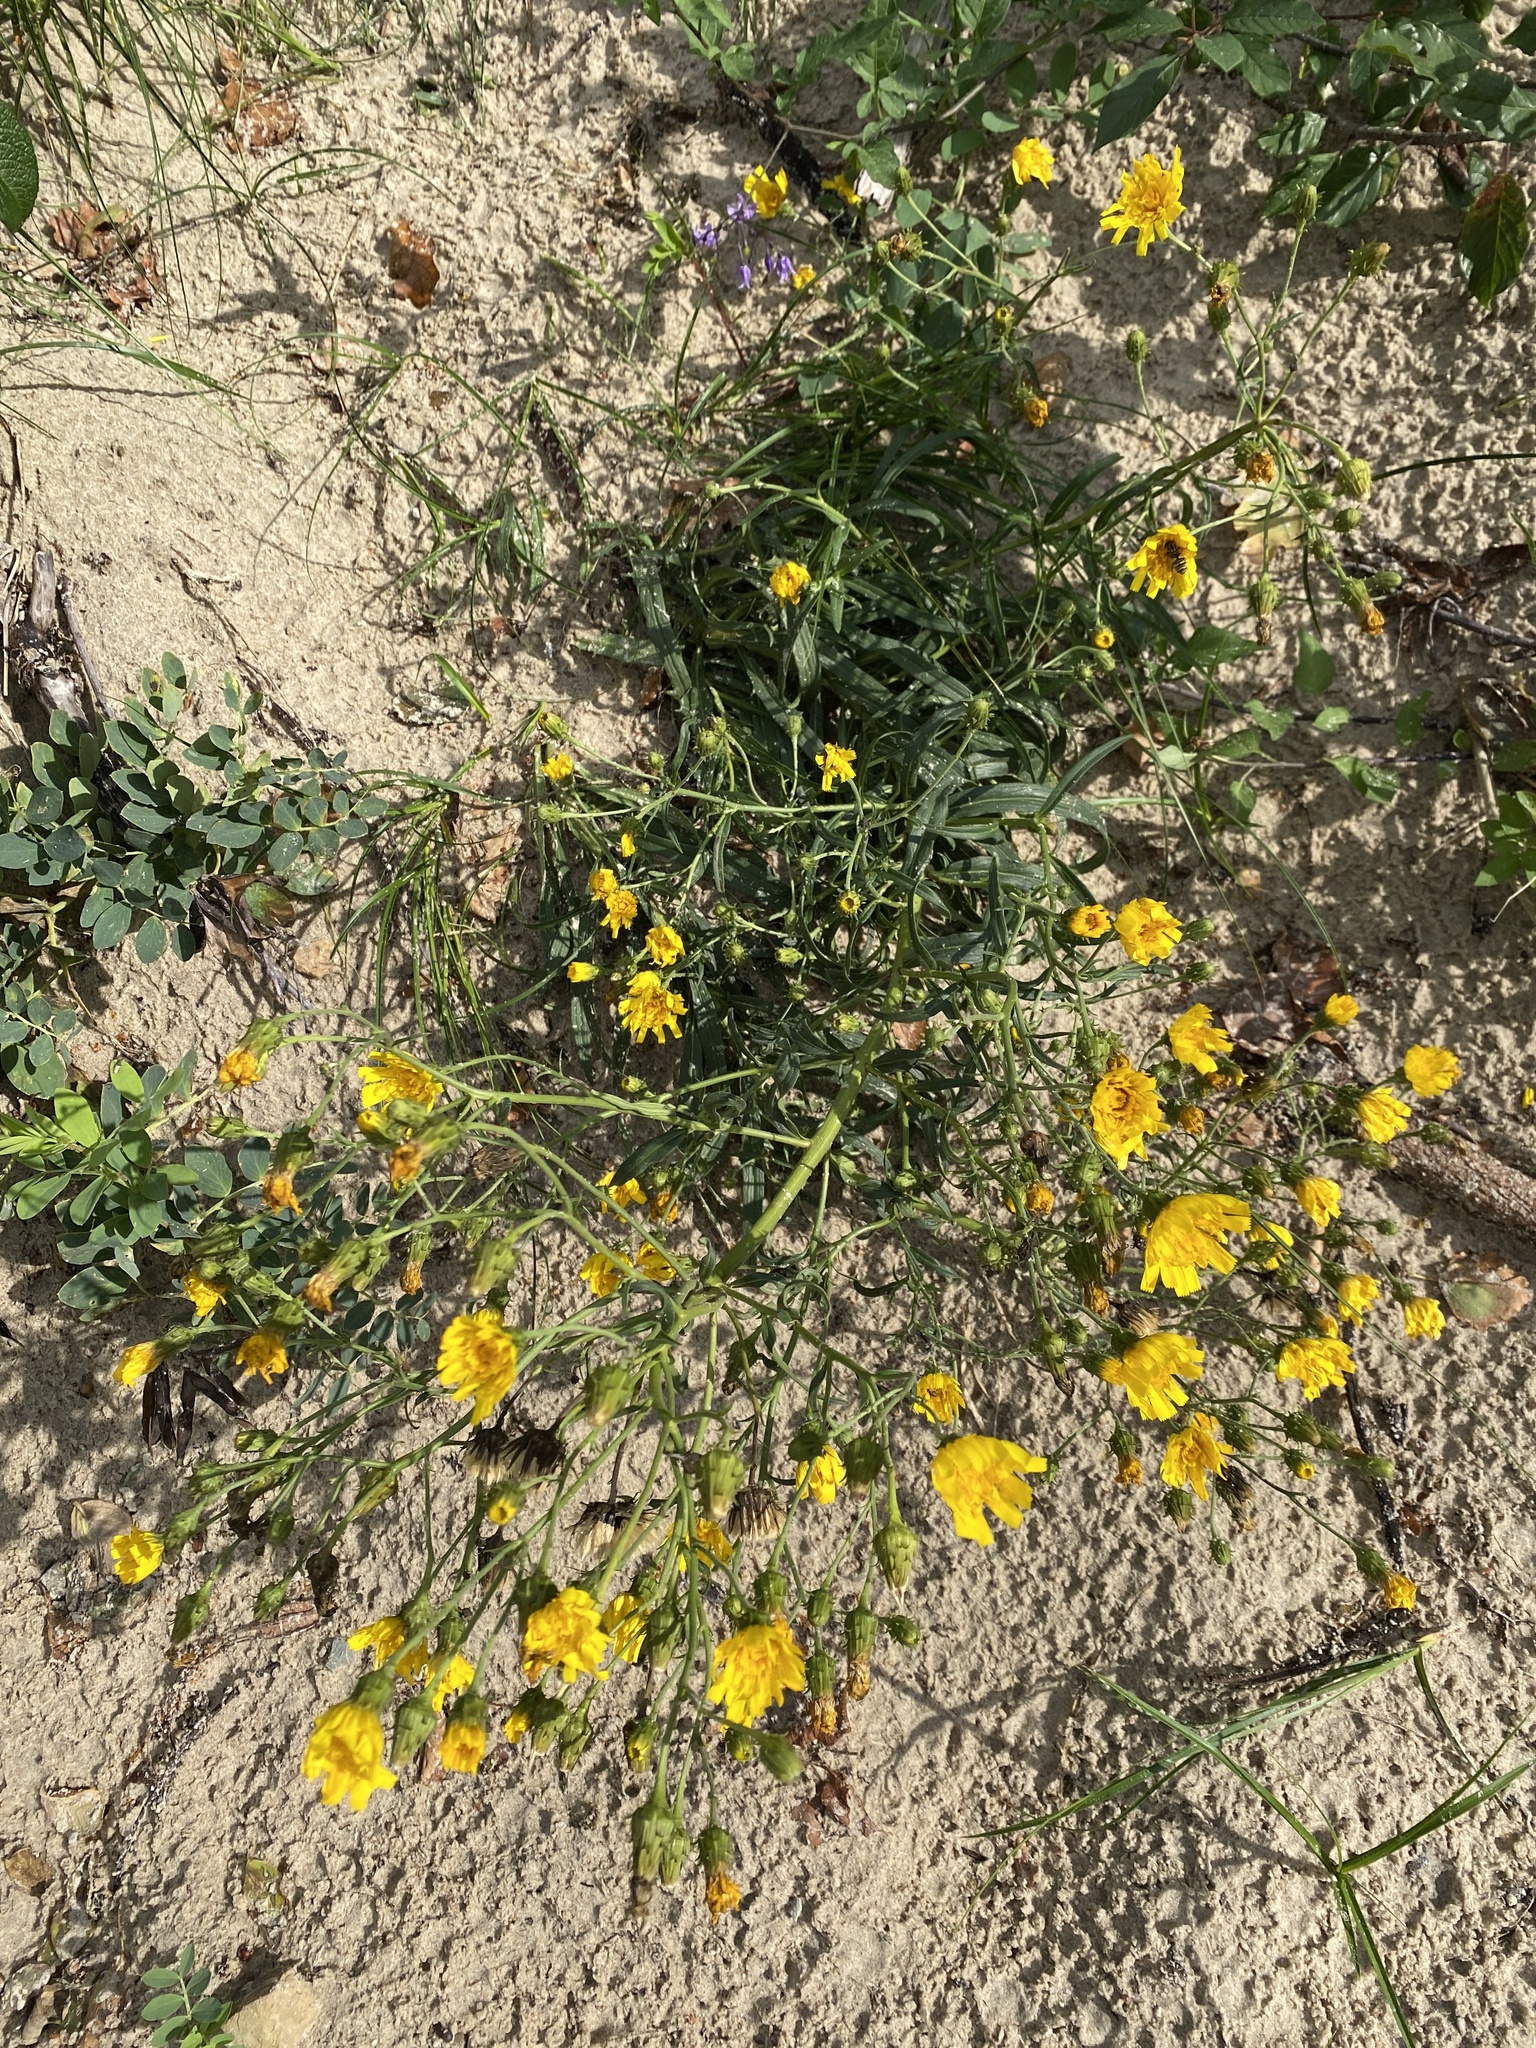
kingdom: Plantae
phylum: Tracheophyta
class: Magnoliopsida
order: Asterales
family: Asteraceae
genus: Hieracium
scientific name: Hieracium umbellatum
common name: Northern hawkweed
